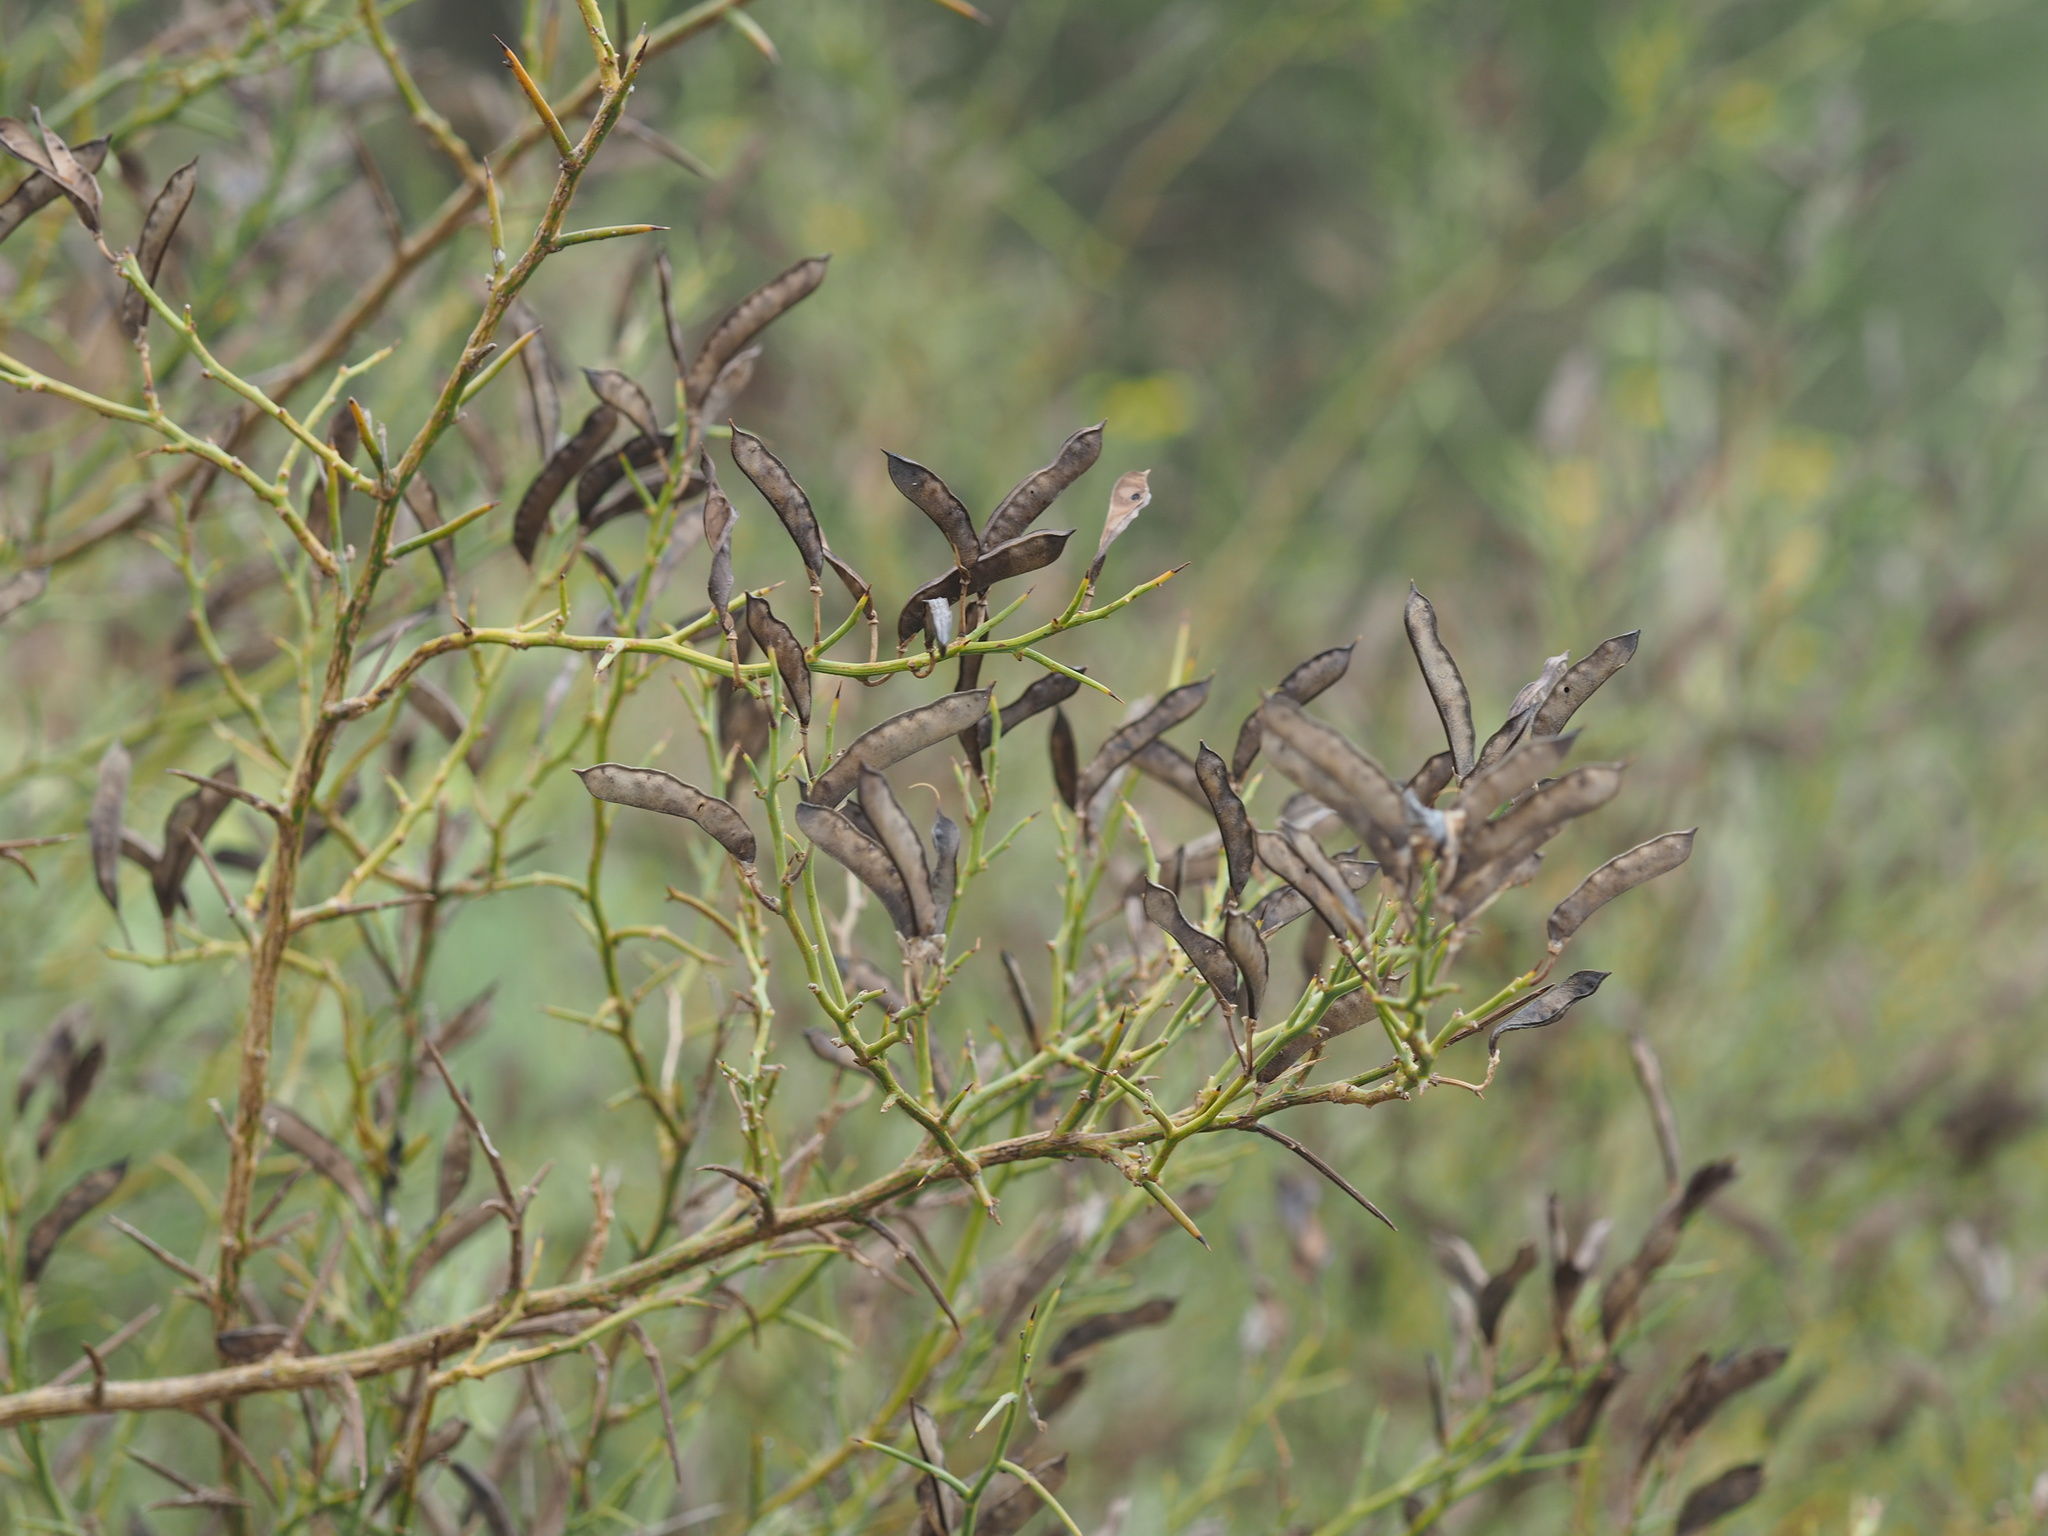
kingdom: Plantae
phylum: Tracheophyta
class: Magnoliopsida
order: Fabales
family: Fabaceae
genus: Spartium
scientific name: Spartium junceum
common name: Spanish broom
